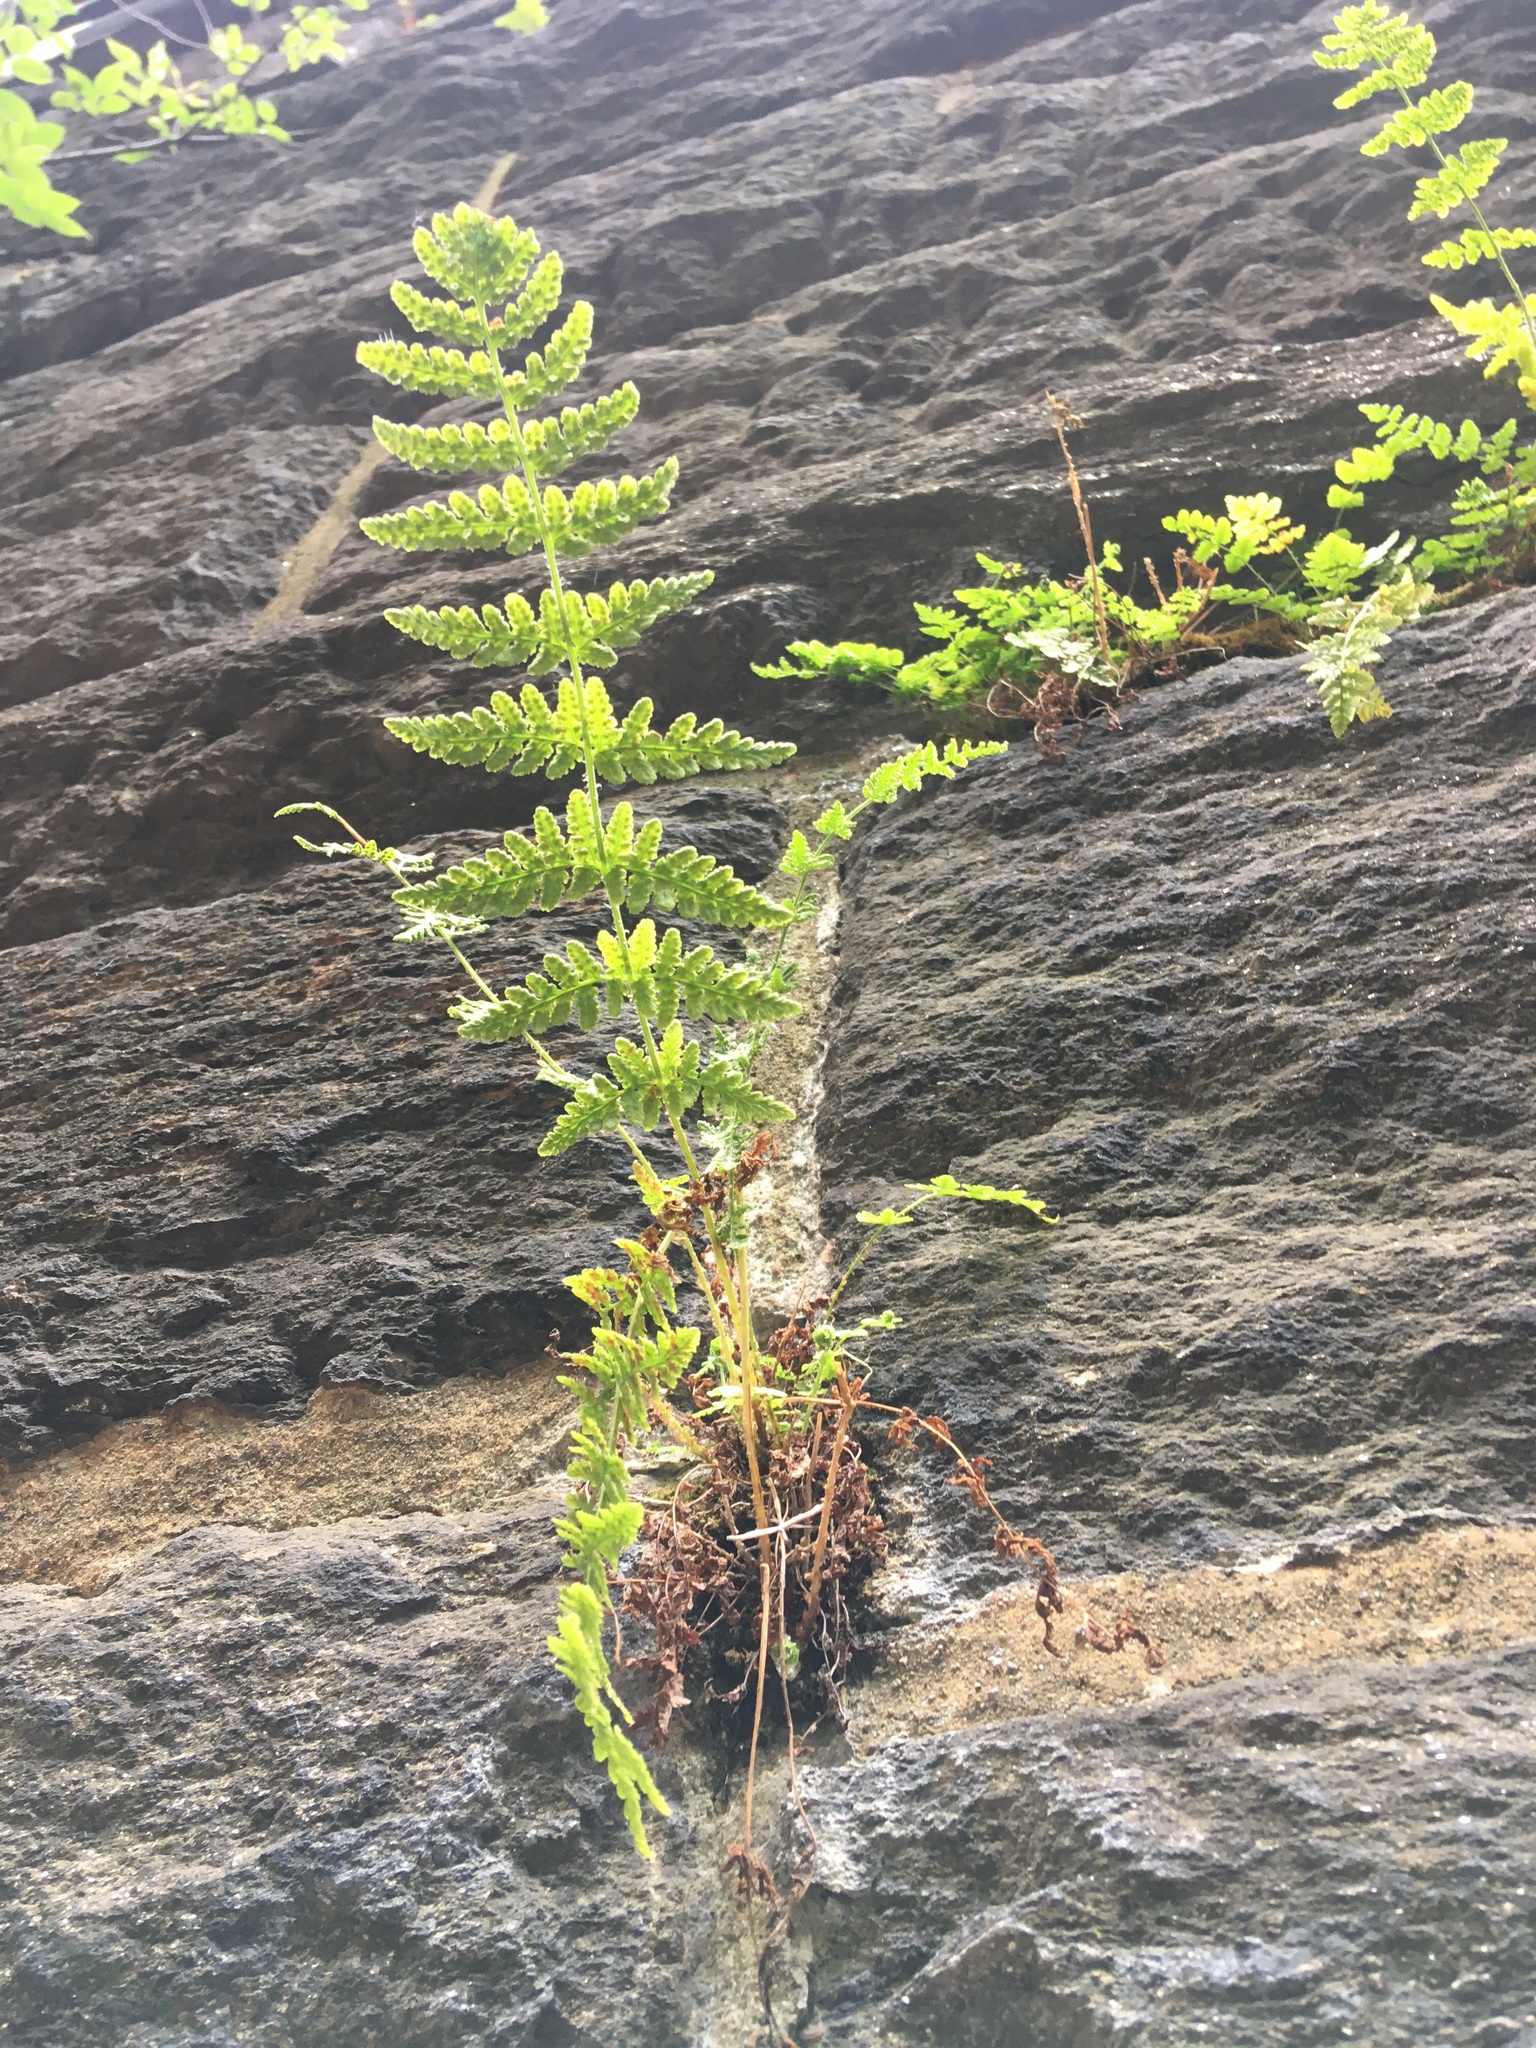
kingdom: Plantae
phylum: Tracheophyta
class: Polypodiopsida
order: Polypodiales
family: Woodsiaceae
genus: Physematium
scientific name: Physematium obtusum
